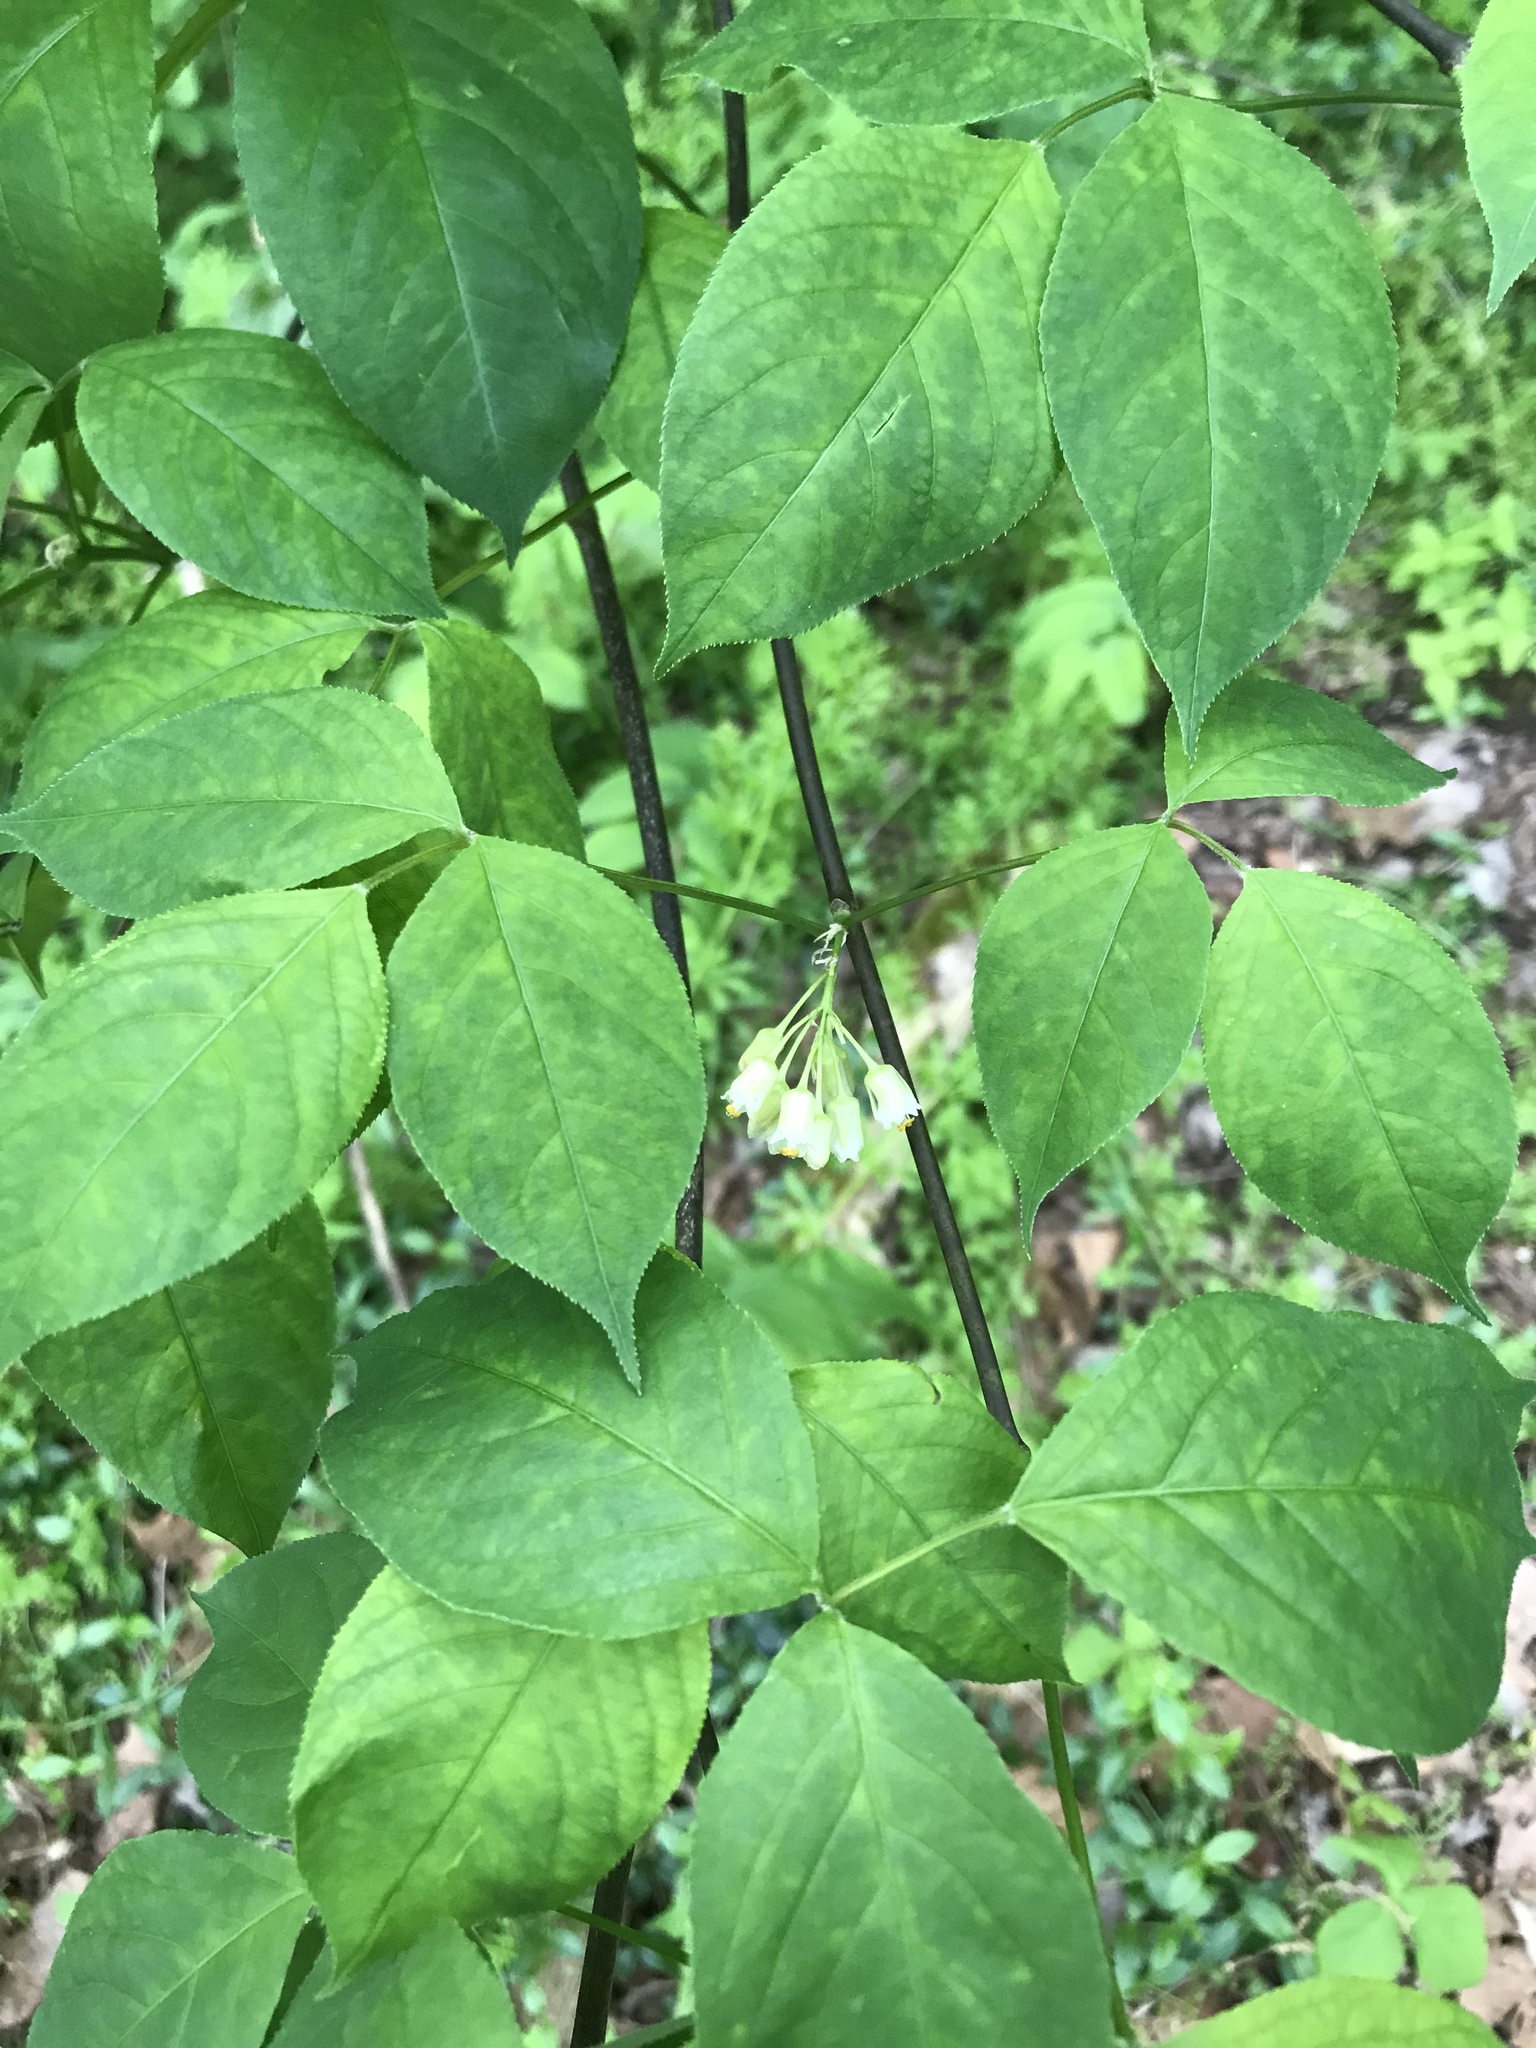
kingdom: Plantae
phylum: Tracheophyta
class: Magnoliopsida
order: Crossosomatales
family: Staphyleaceae
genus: Staphylea
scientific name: Staphylea trifolia
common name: American bladdernut
